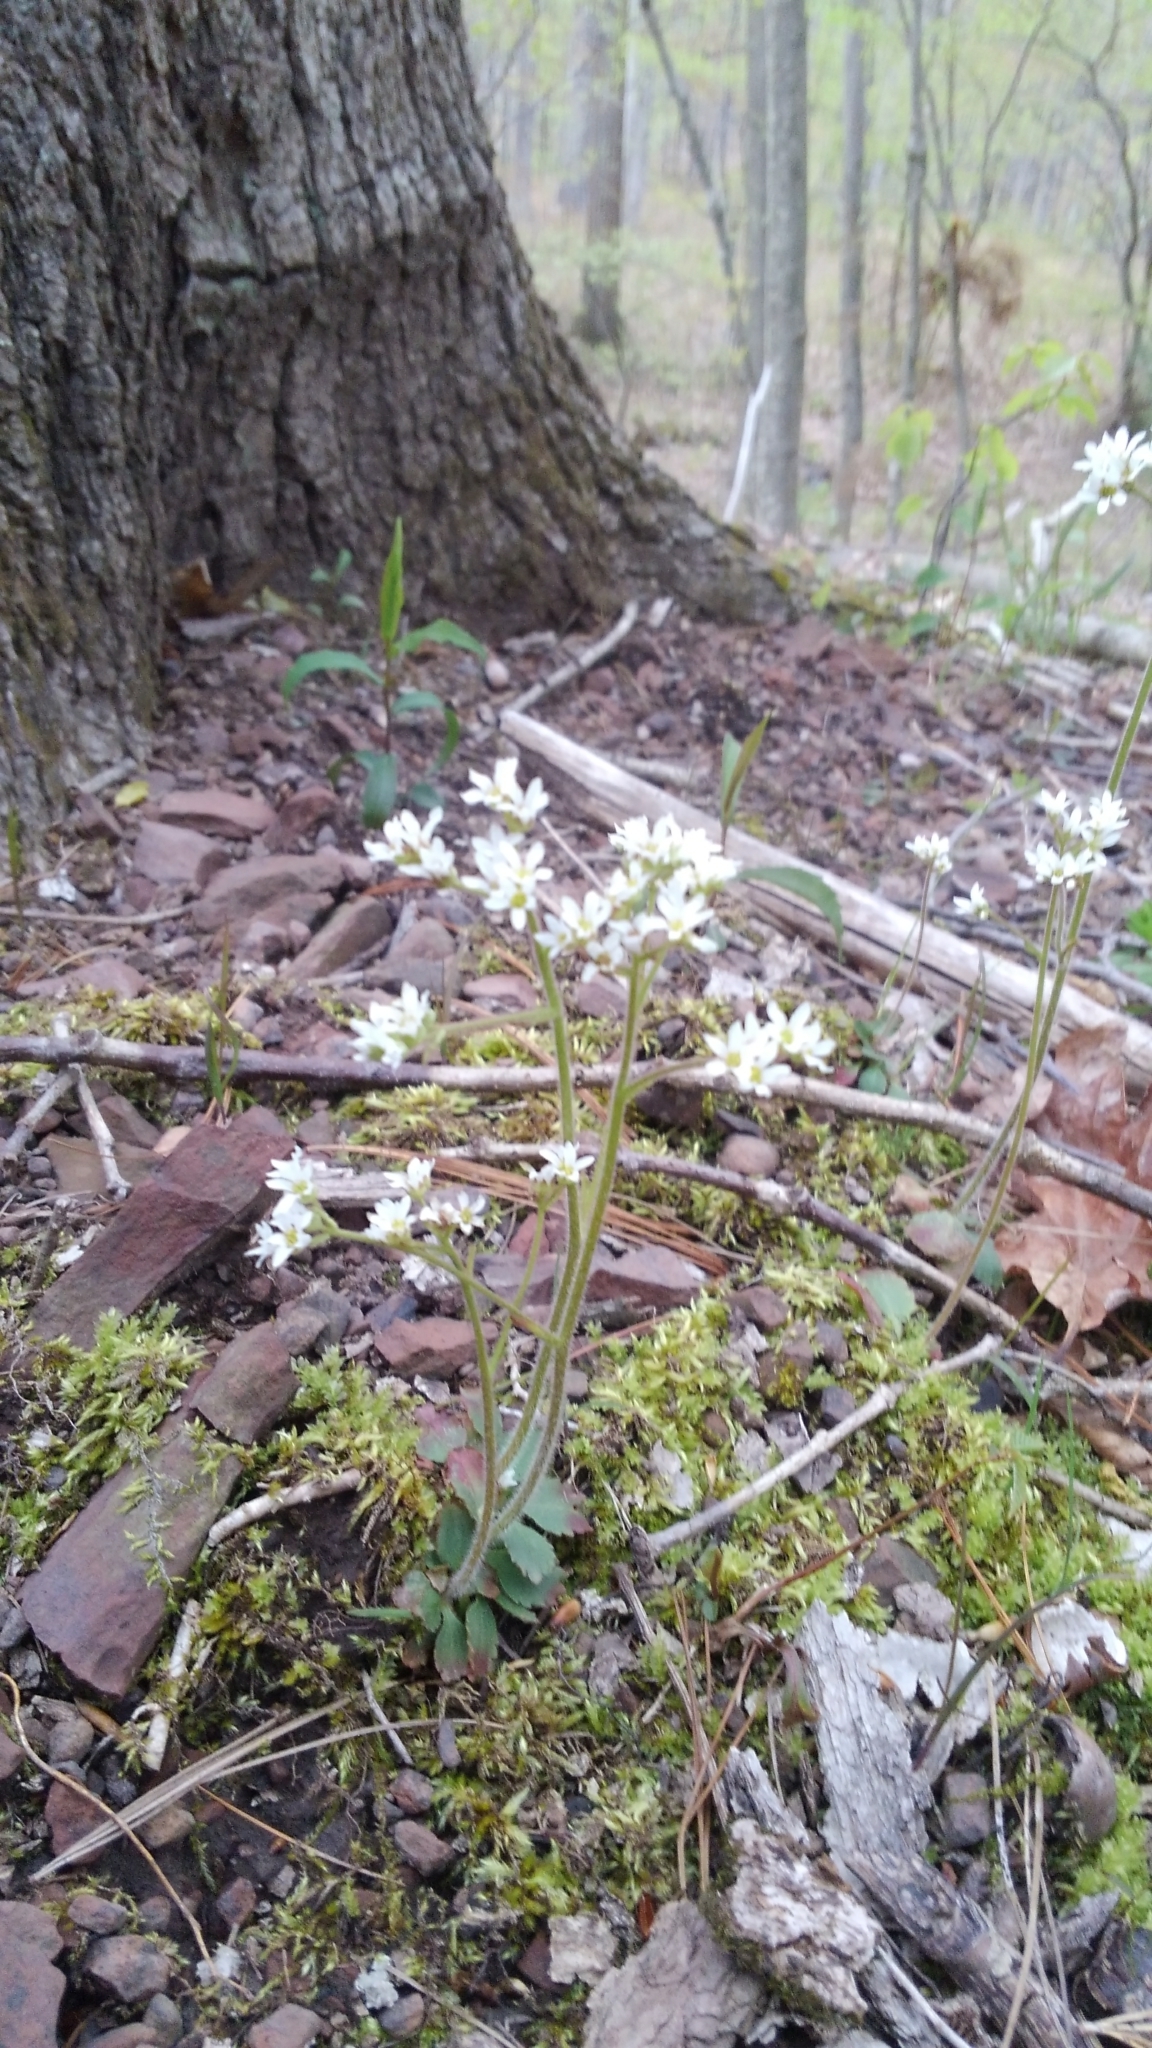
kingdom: Plantae
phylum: Tracheophyta
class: Magnoliopsida
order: Saxifragales
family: Saxifragaceae
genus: Micranthes
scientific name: Micranthes virginiensis
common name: Early saxifrage
